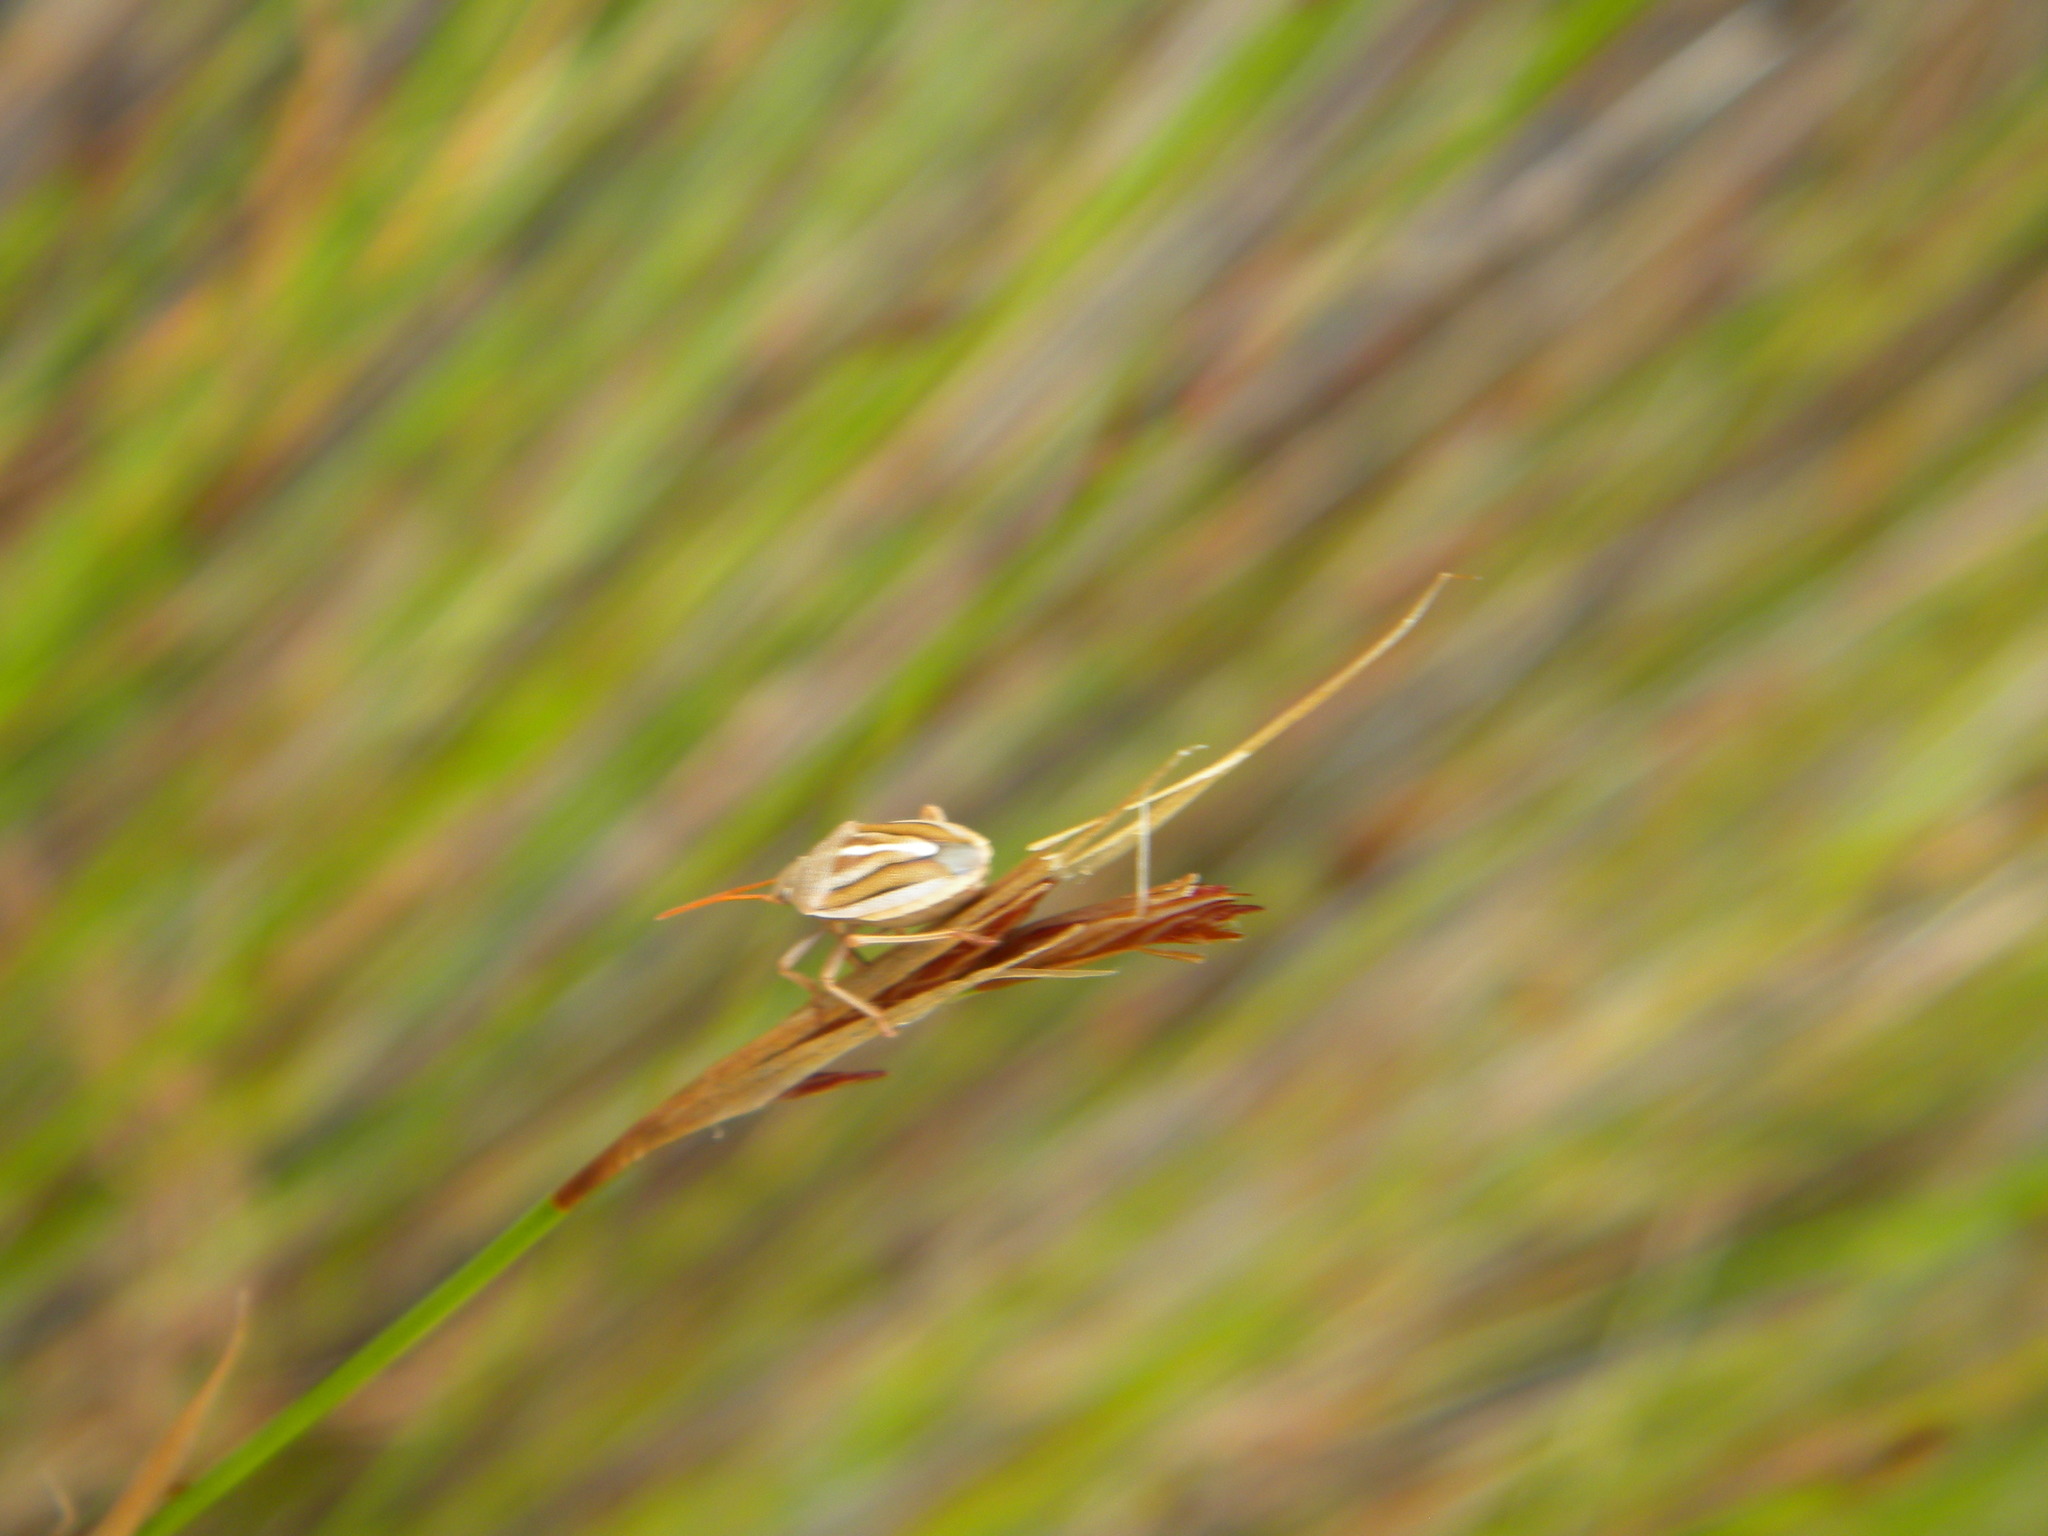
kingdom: Animalia
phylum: Arthropoda
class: Insecta
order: Hemiptera
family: Pentatomidae
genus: Theloris
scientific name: Theloris costata
